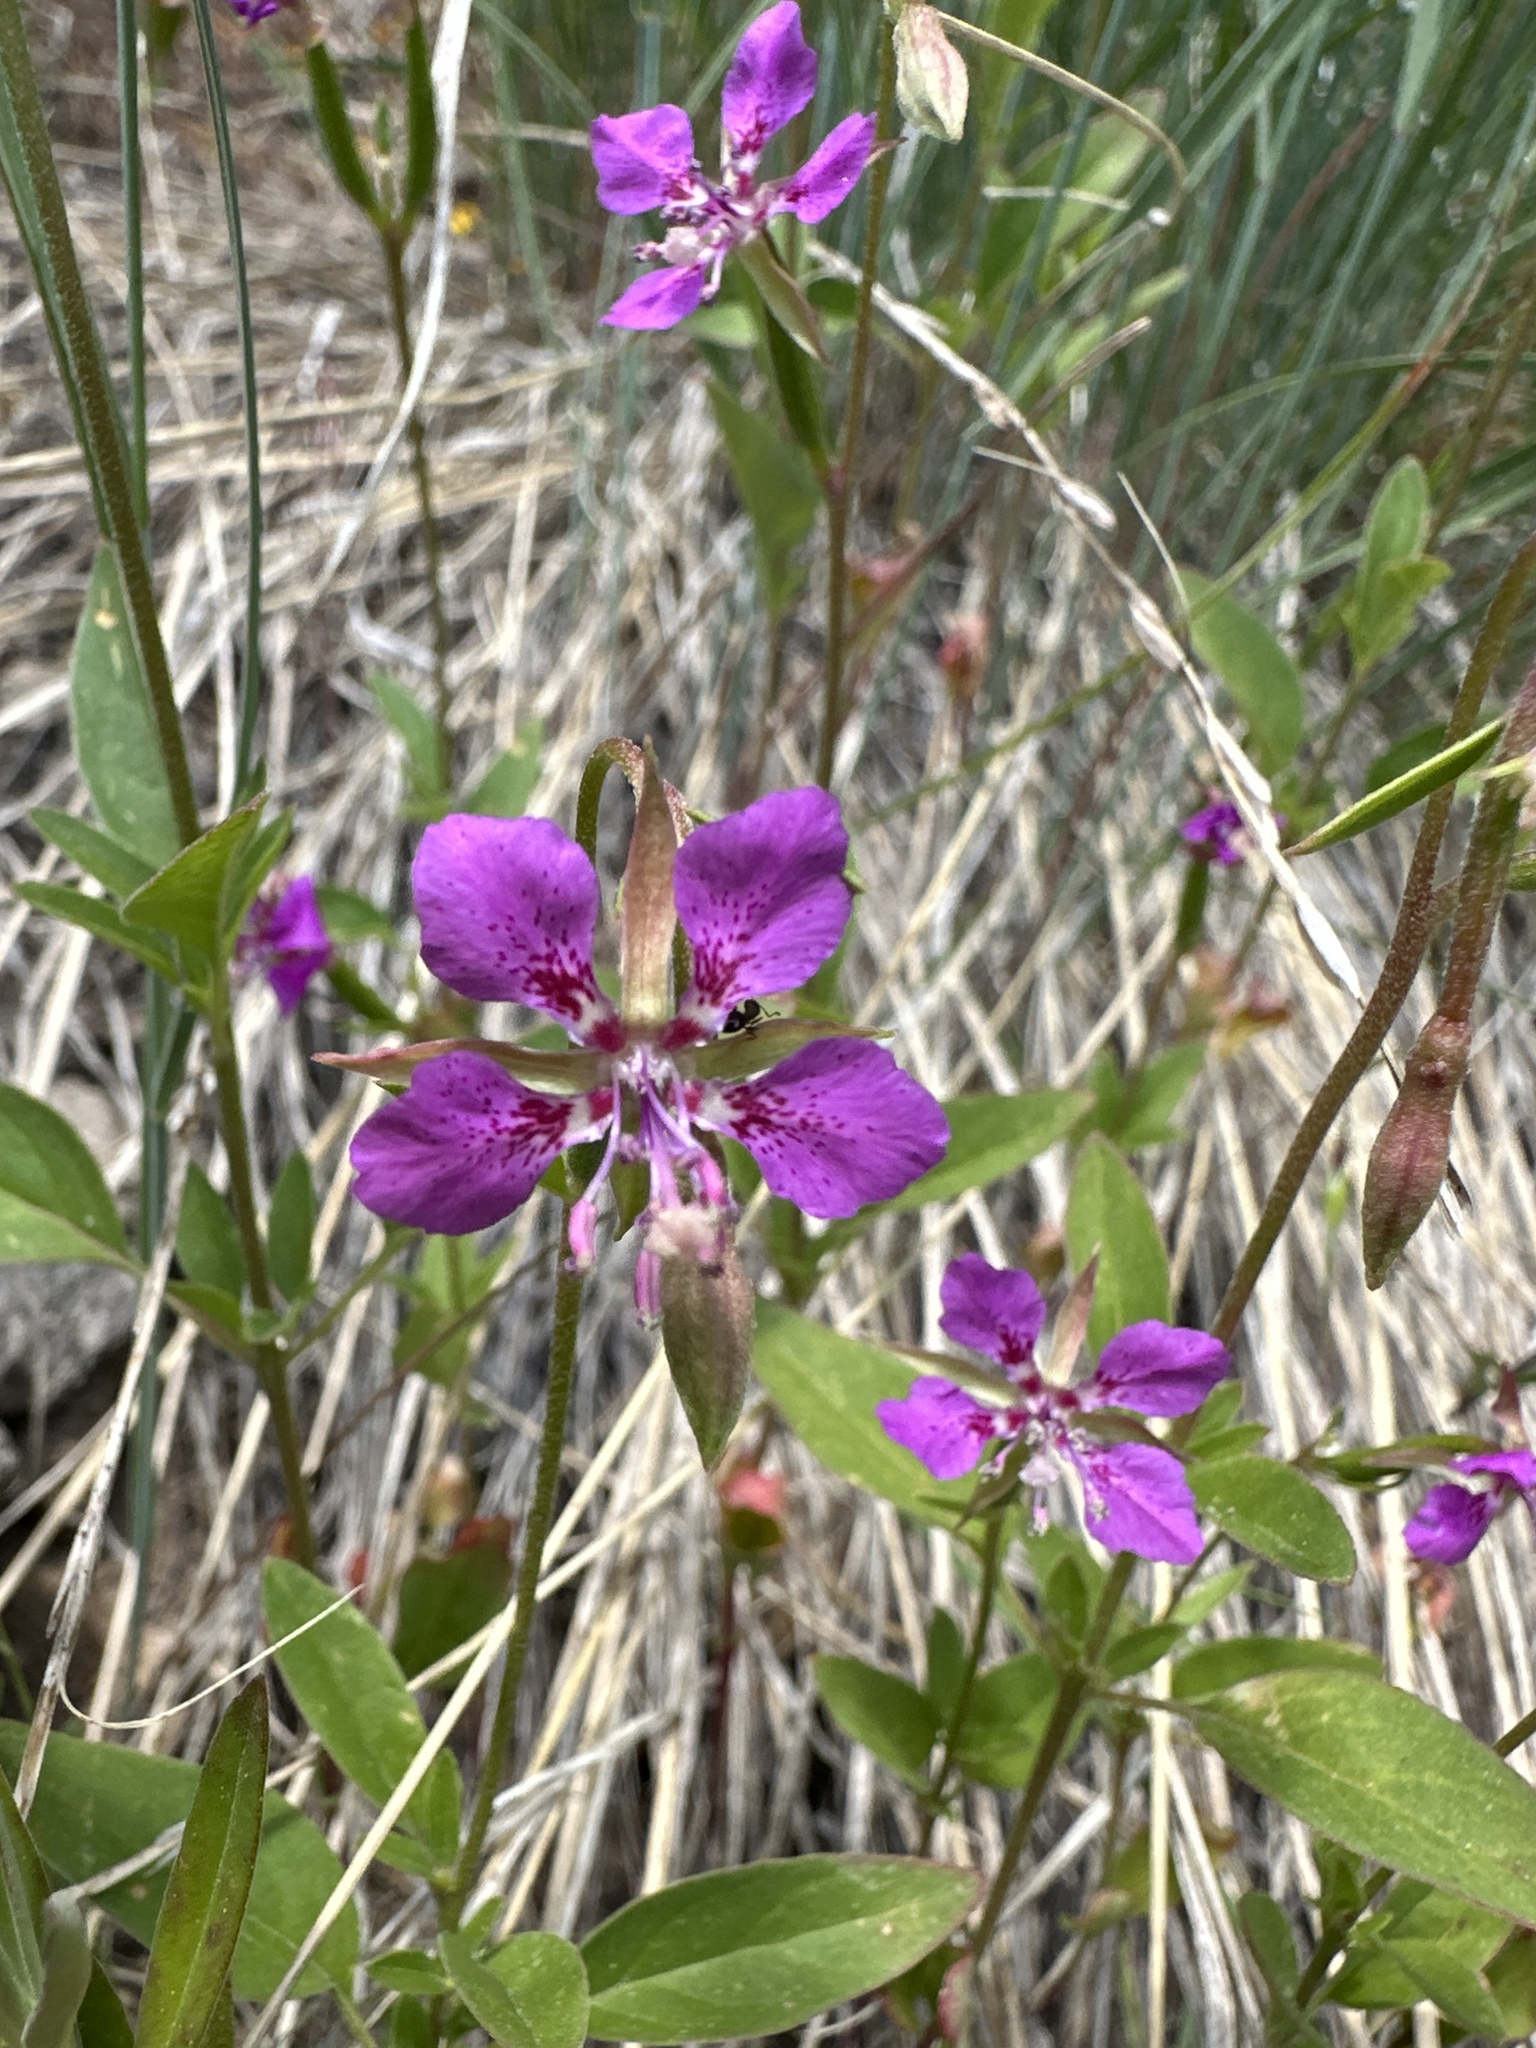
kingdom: Plantae
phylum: Tracheophyta
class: Magnoliopsida
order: Myrtales
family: Onagraceae
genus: Clarkia
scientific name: Clarkia rhomboidea
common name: Broadleaf clarkia
